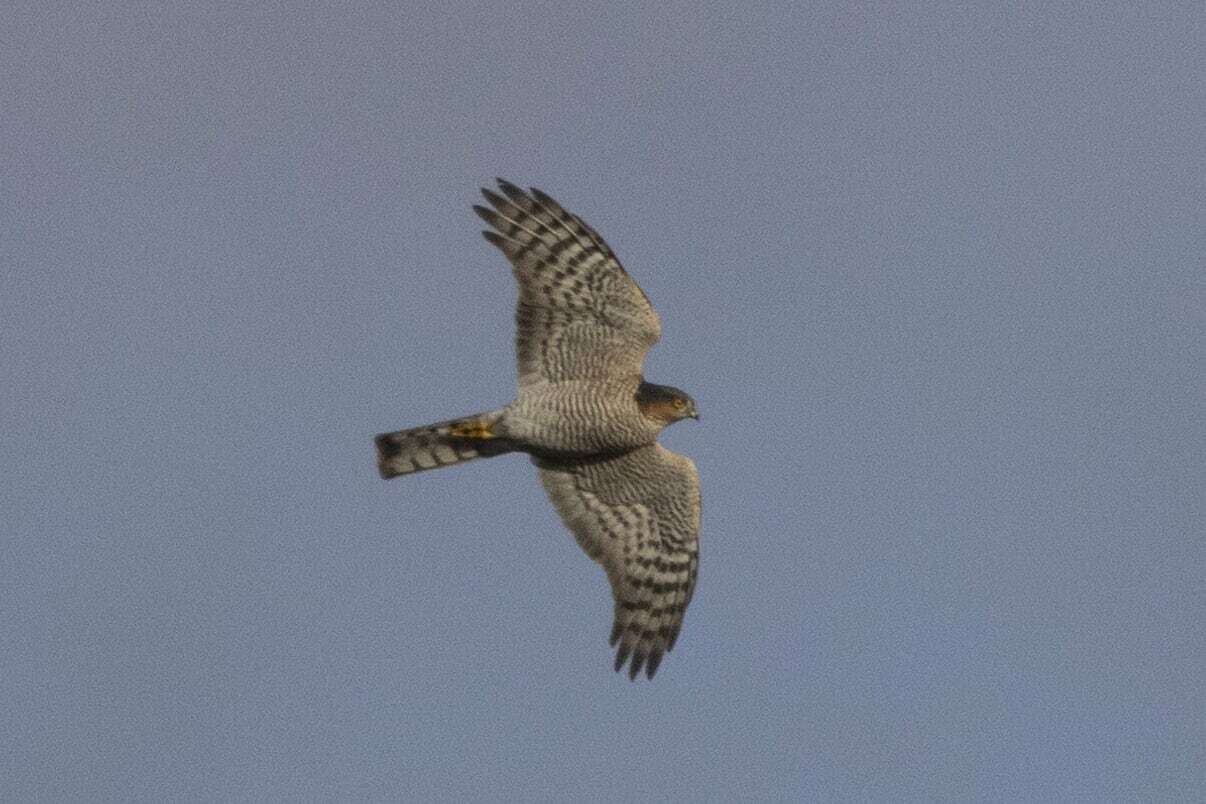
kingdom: Animalia
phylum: Chordata
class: Aves
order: Accipitriformes
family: Accipitridae
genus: Accipiter
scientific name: Accipiter nisus
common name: Eurasian sparrowhawk
